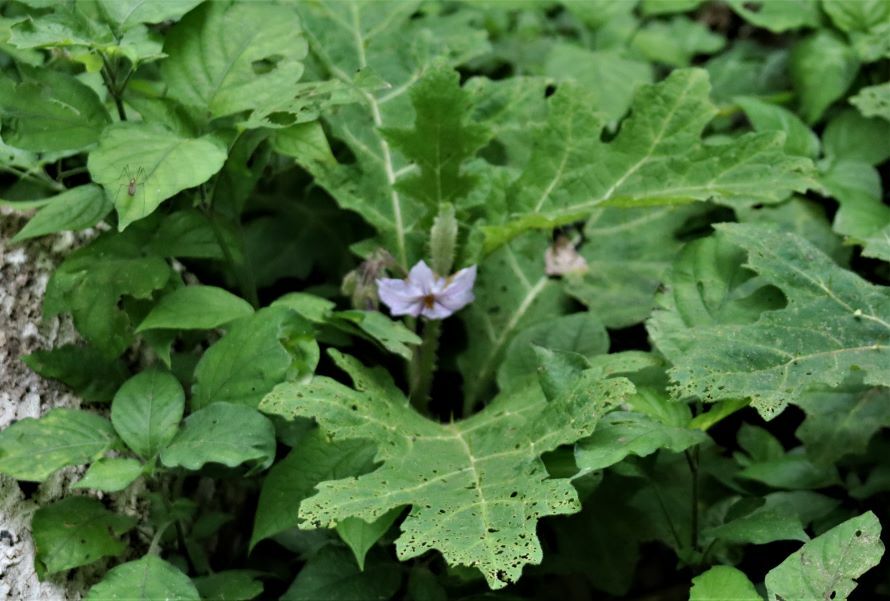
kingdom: Plantae
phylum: Tracheophyta
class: Magnoliopsida
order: Solanales
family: Solanaceae
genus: Solanum
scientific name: Solanum dasyphyllum
